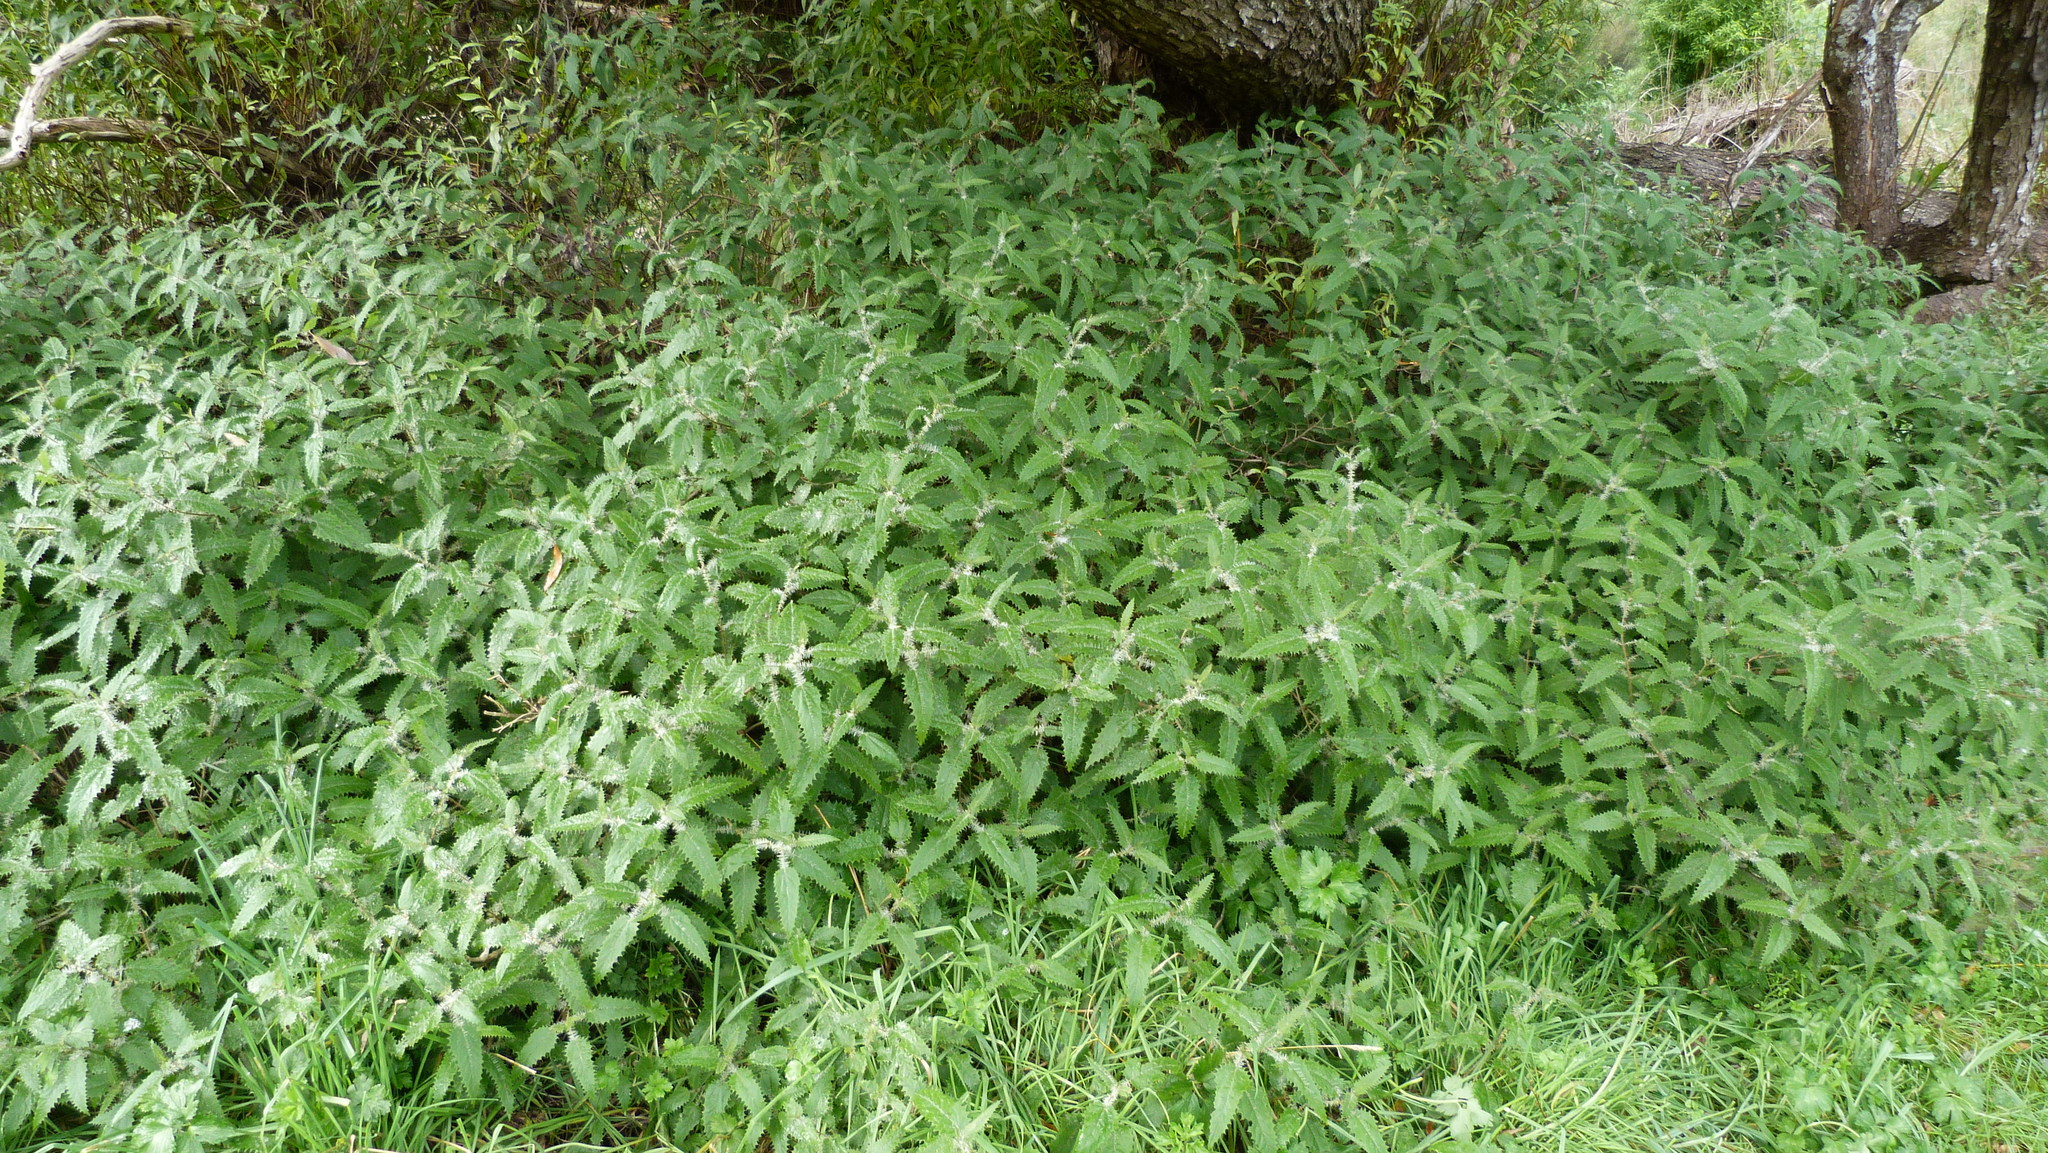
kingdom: Plantae
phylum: Tracheophyta
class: Magnoliopsida
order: Rosales
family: Urticaceae
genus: Urtica
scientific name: Urtica ferox
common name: Tree nettle
